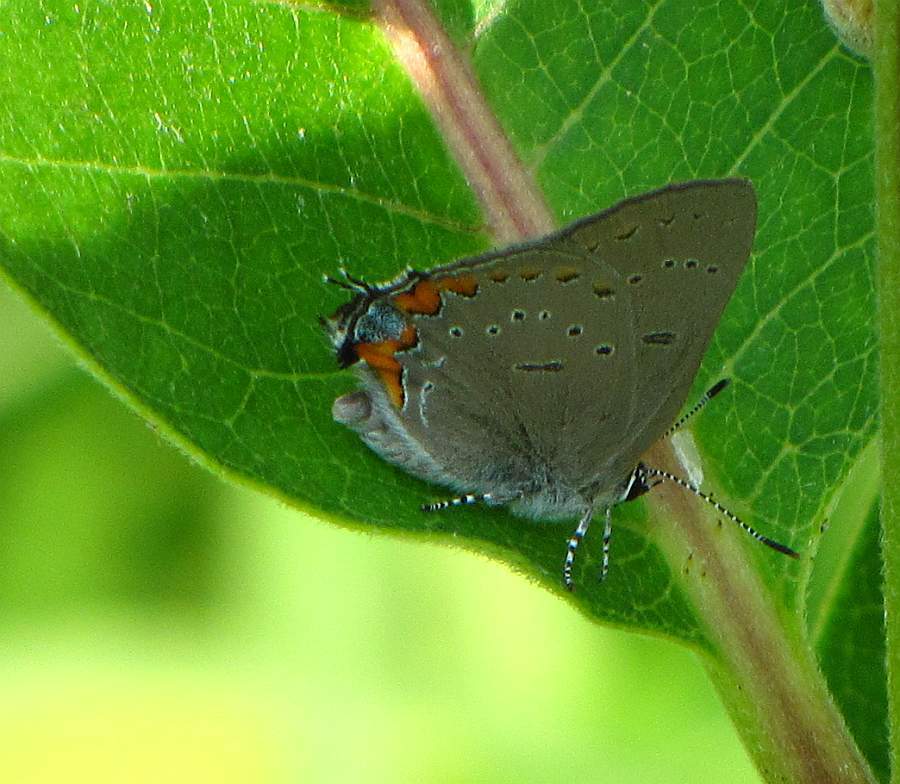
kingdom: Animalia
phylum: Arthropoda
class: Insecta
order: Lepidoptera
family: Lycaenidae
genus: Strymon
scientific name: Strymon acadica
